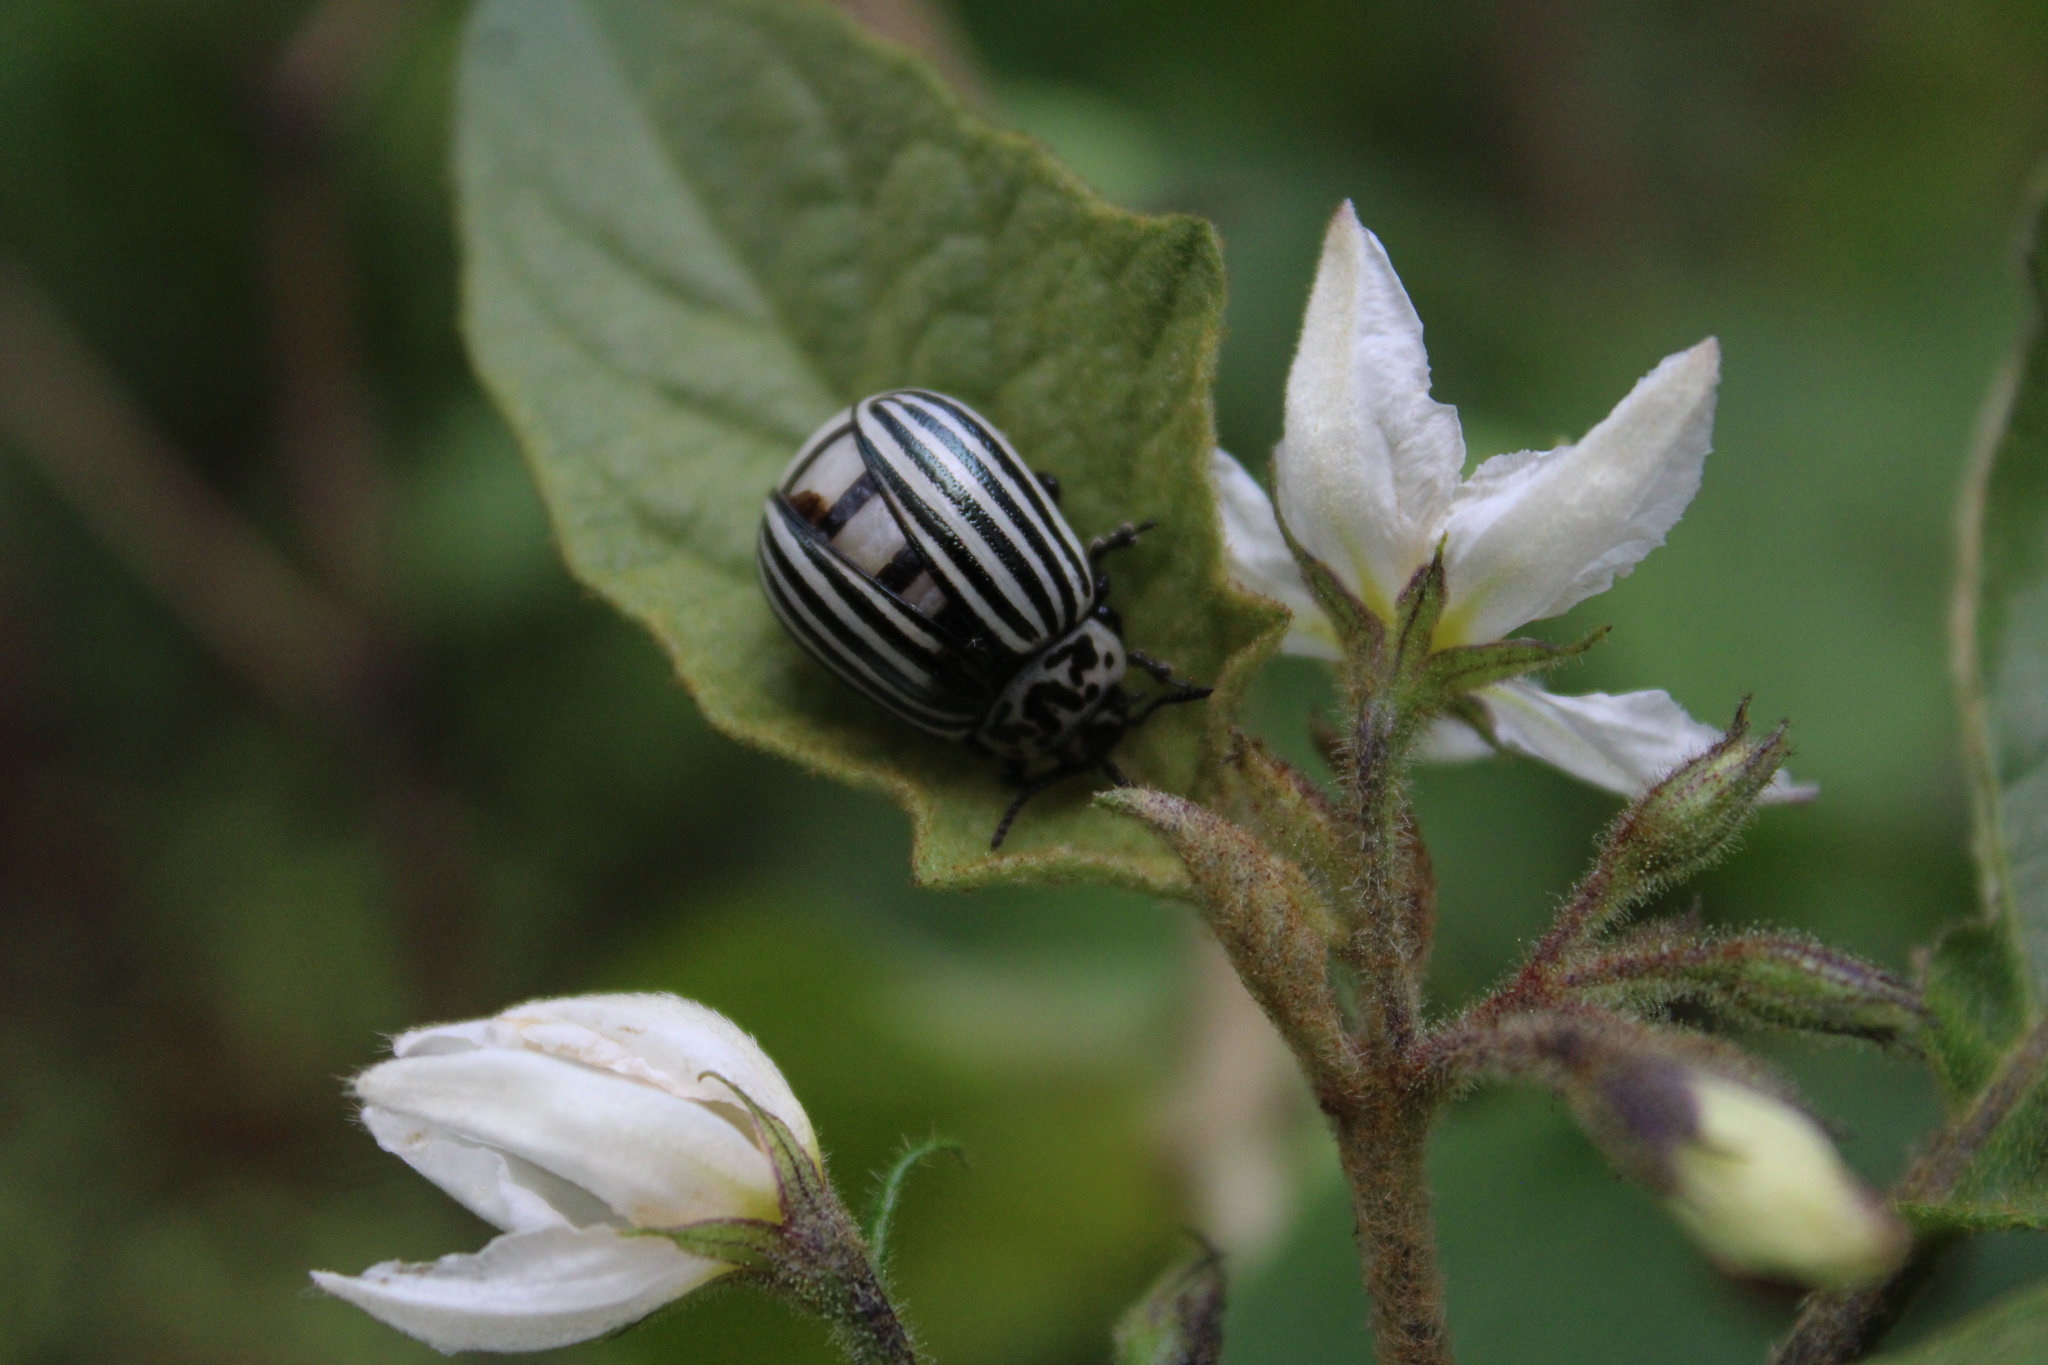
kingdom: Animalia
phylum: Arthropoda
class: Insecta
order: Coleoptera
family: Chrysomelidae
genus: Leptinotarsa
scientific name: Leptinotarsa
